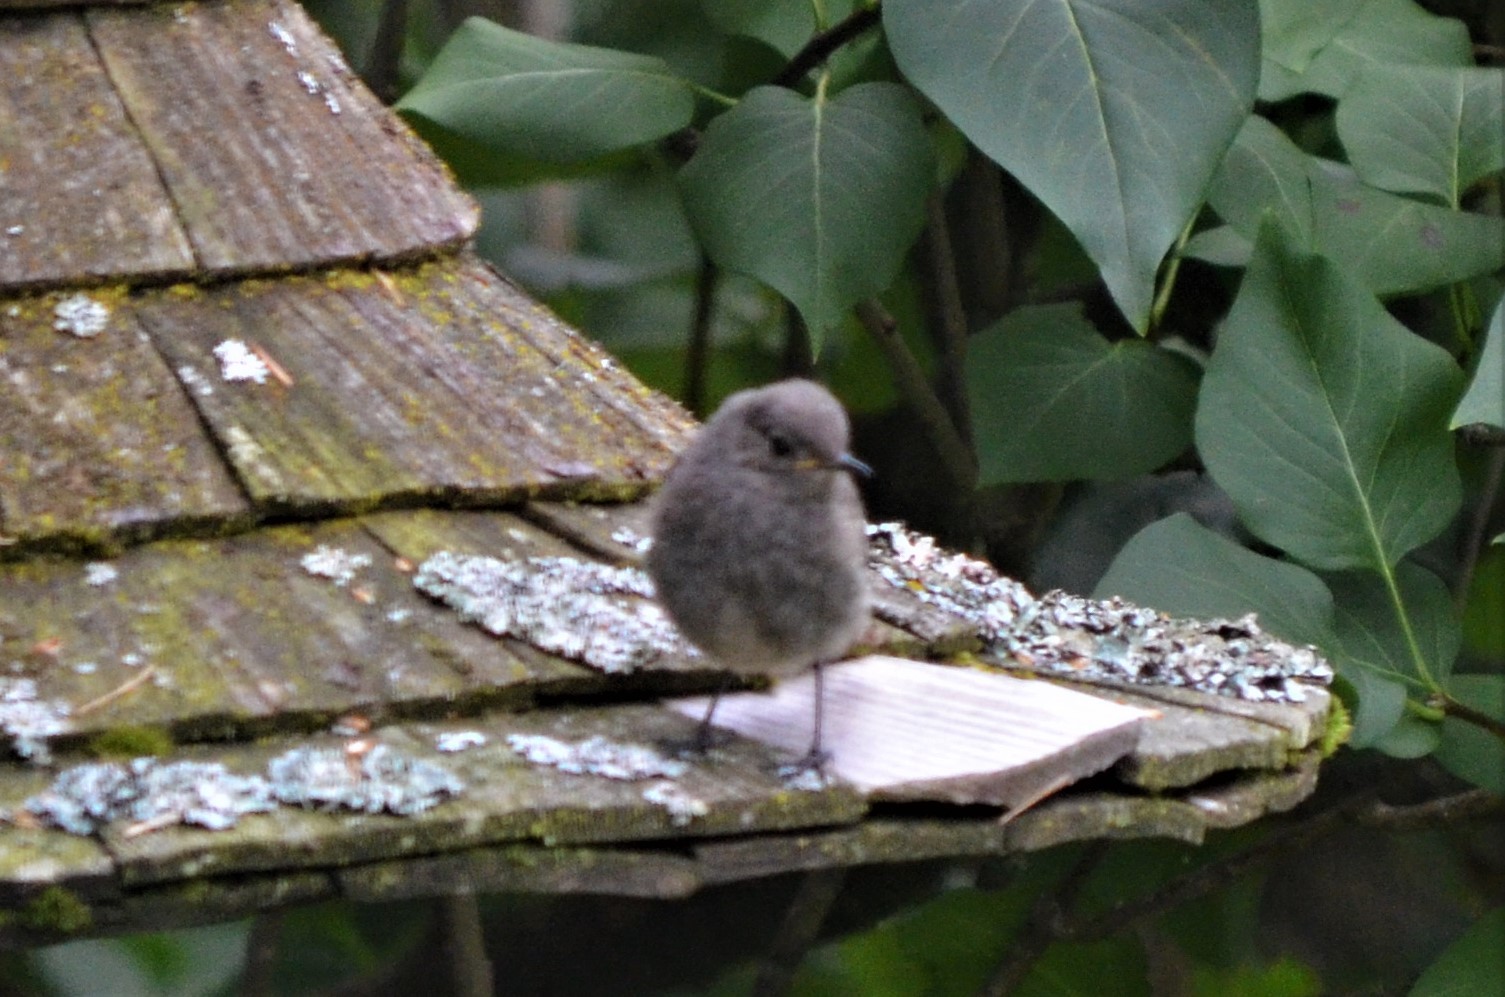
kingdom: Animalia
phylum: Chordata
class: Aves
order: Passeriformes
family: Muscicapidae
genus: Phoenicurus
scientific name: Phoenicurus ochruros
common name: Black redstart
